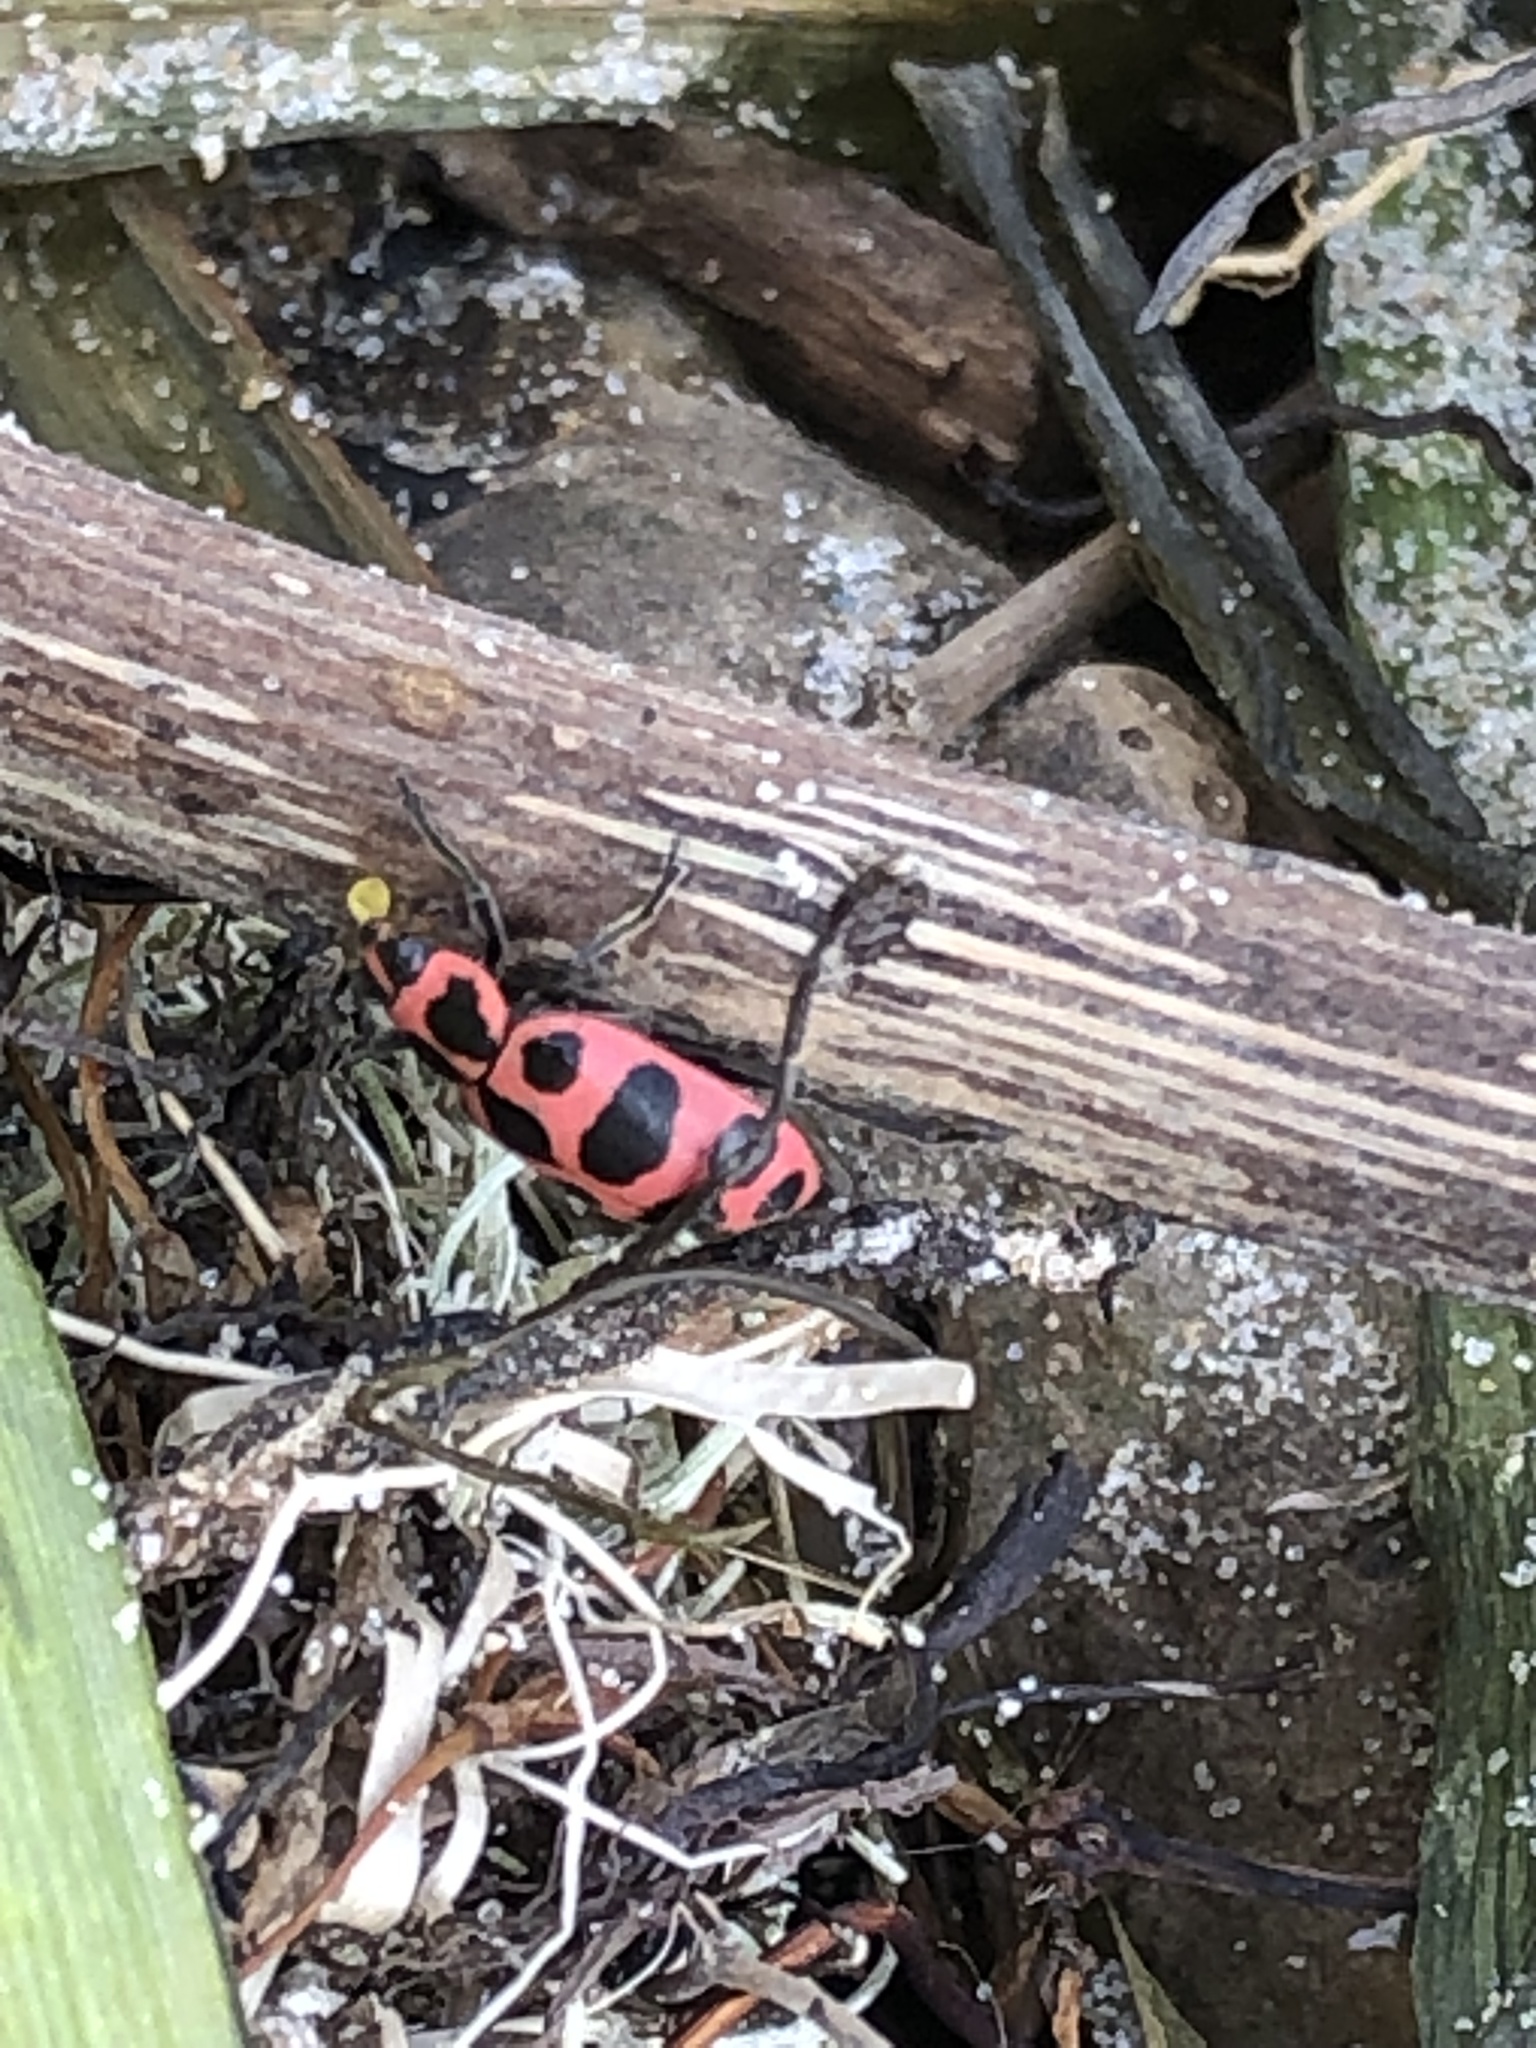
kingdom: Animalia
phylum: Arthropoda
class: Insecta
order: Coleoptera
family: Coccinellidae
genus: Coleomegilla
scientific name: Coleomegilla maculata
